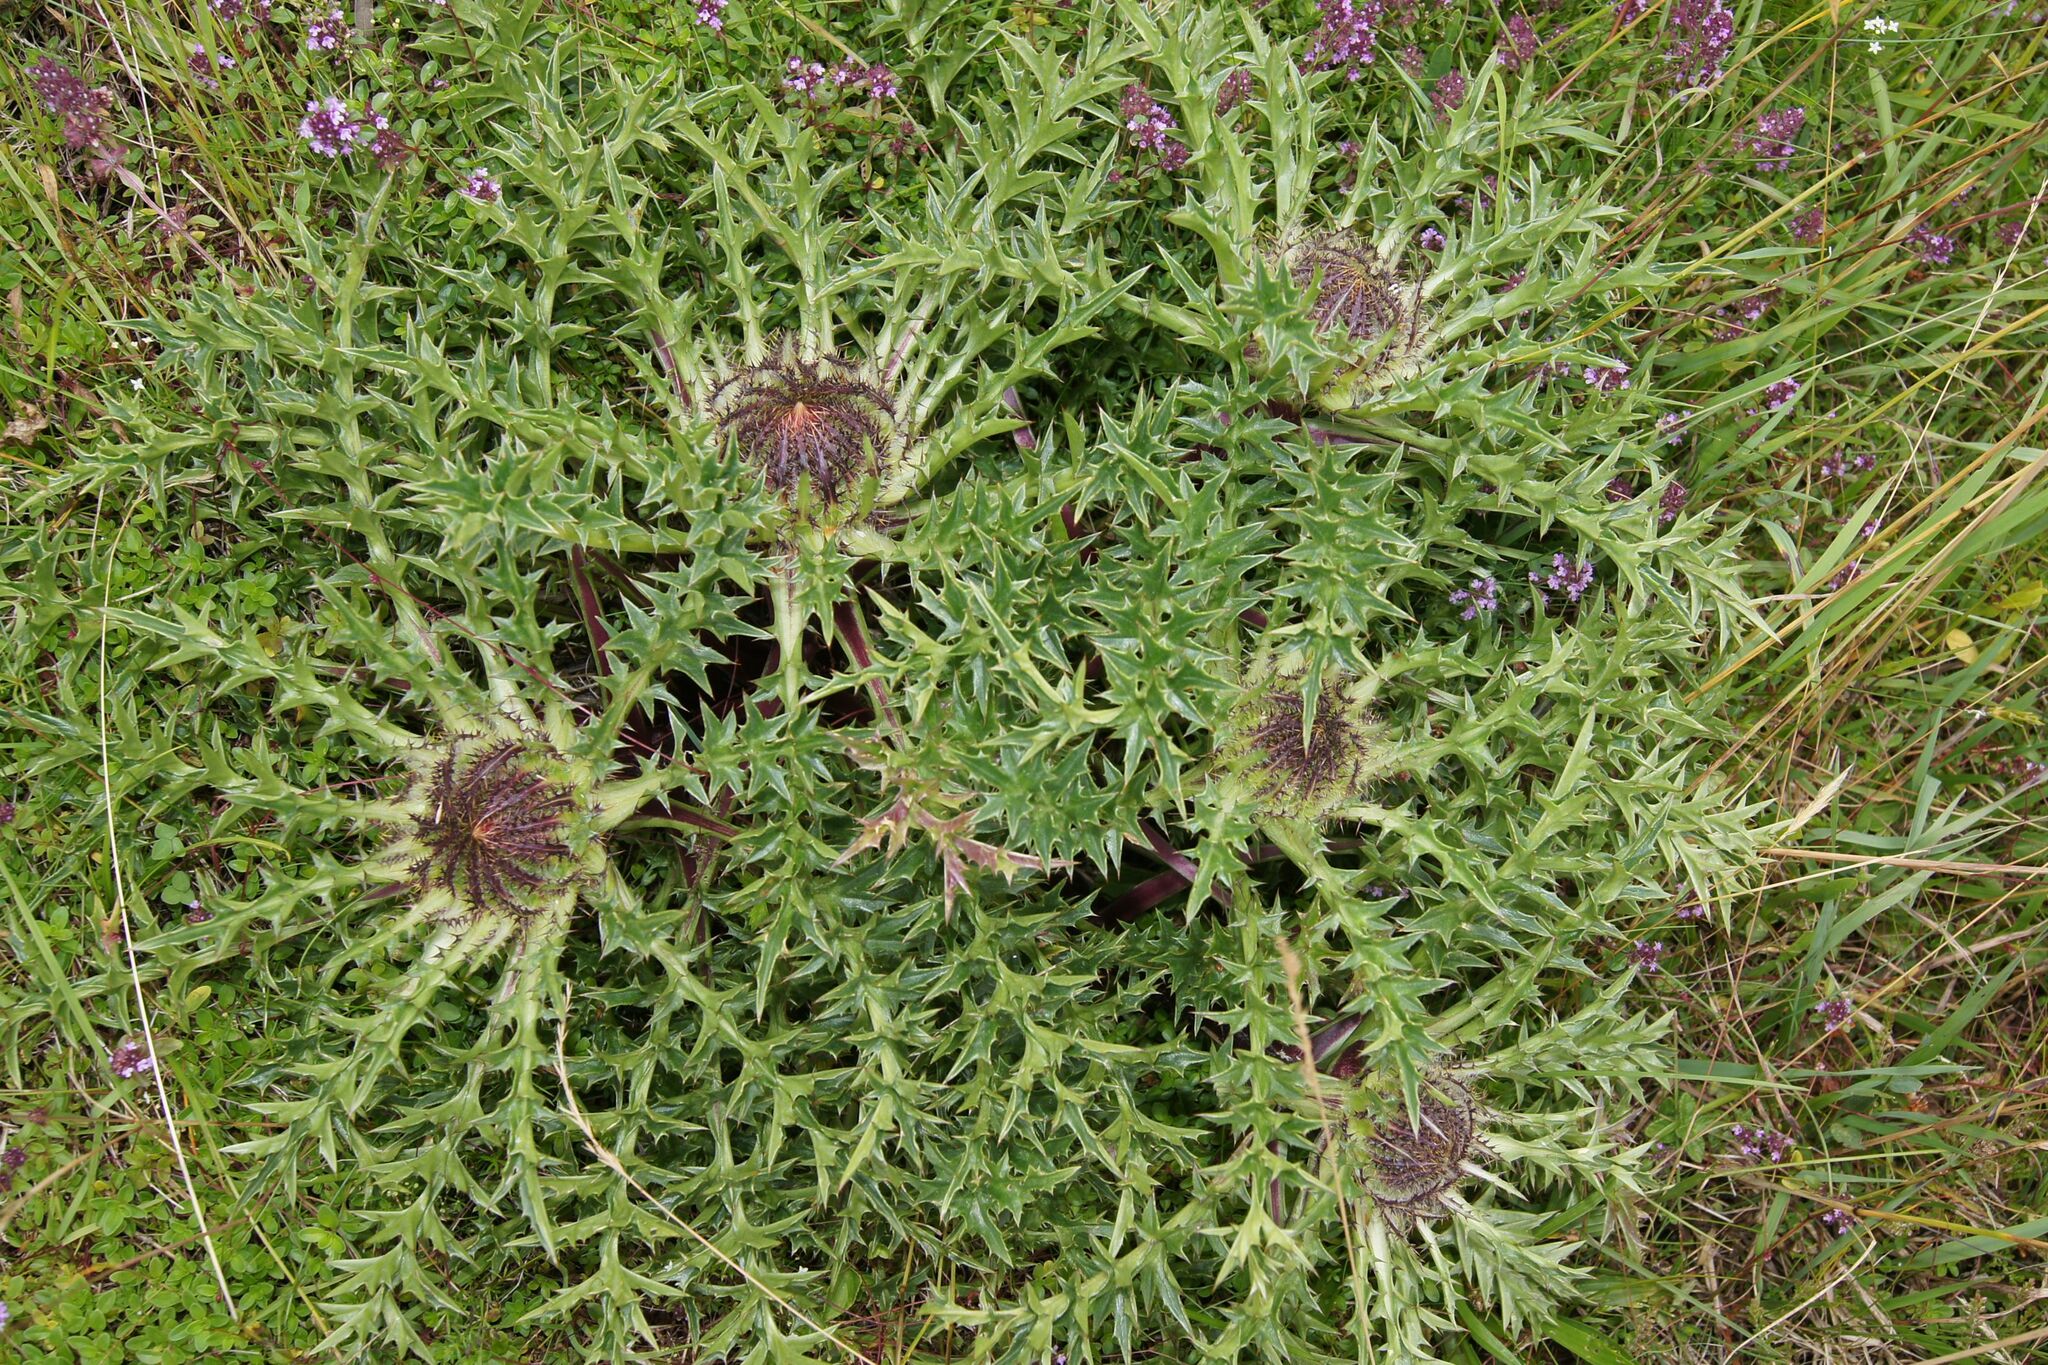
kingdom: Plantae
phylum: Tracheophyta
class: Magnoliopsida
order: Asterales
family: Asteraceae
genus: Carlina
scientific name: Carlina acaulis
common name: Stemless carline thistle
